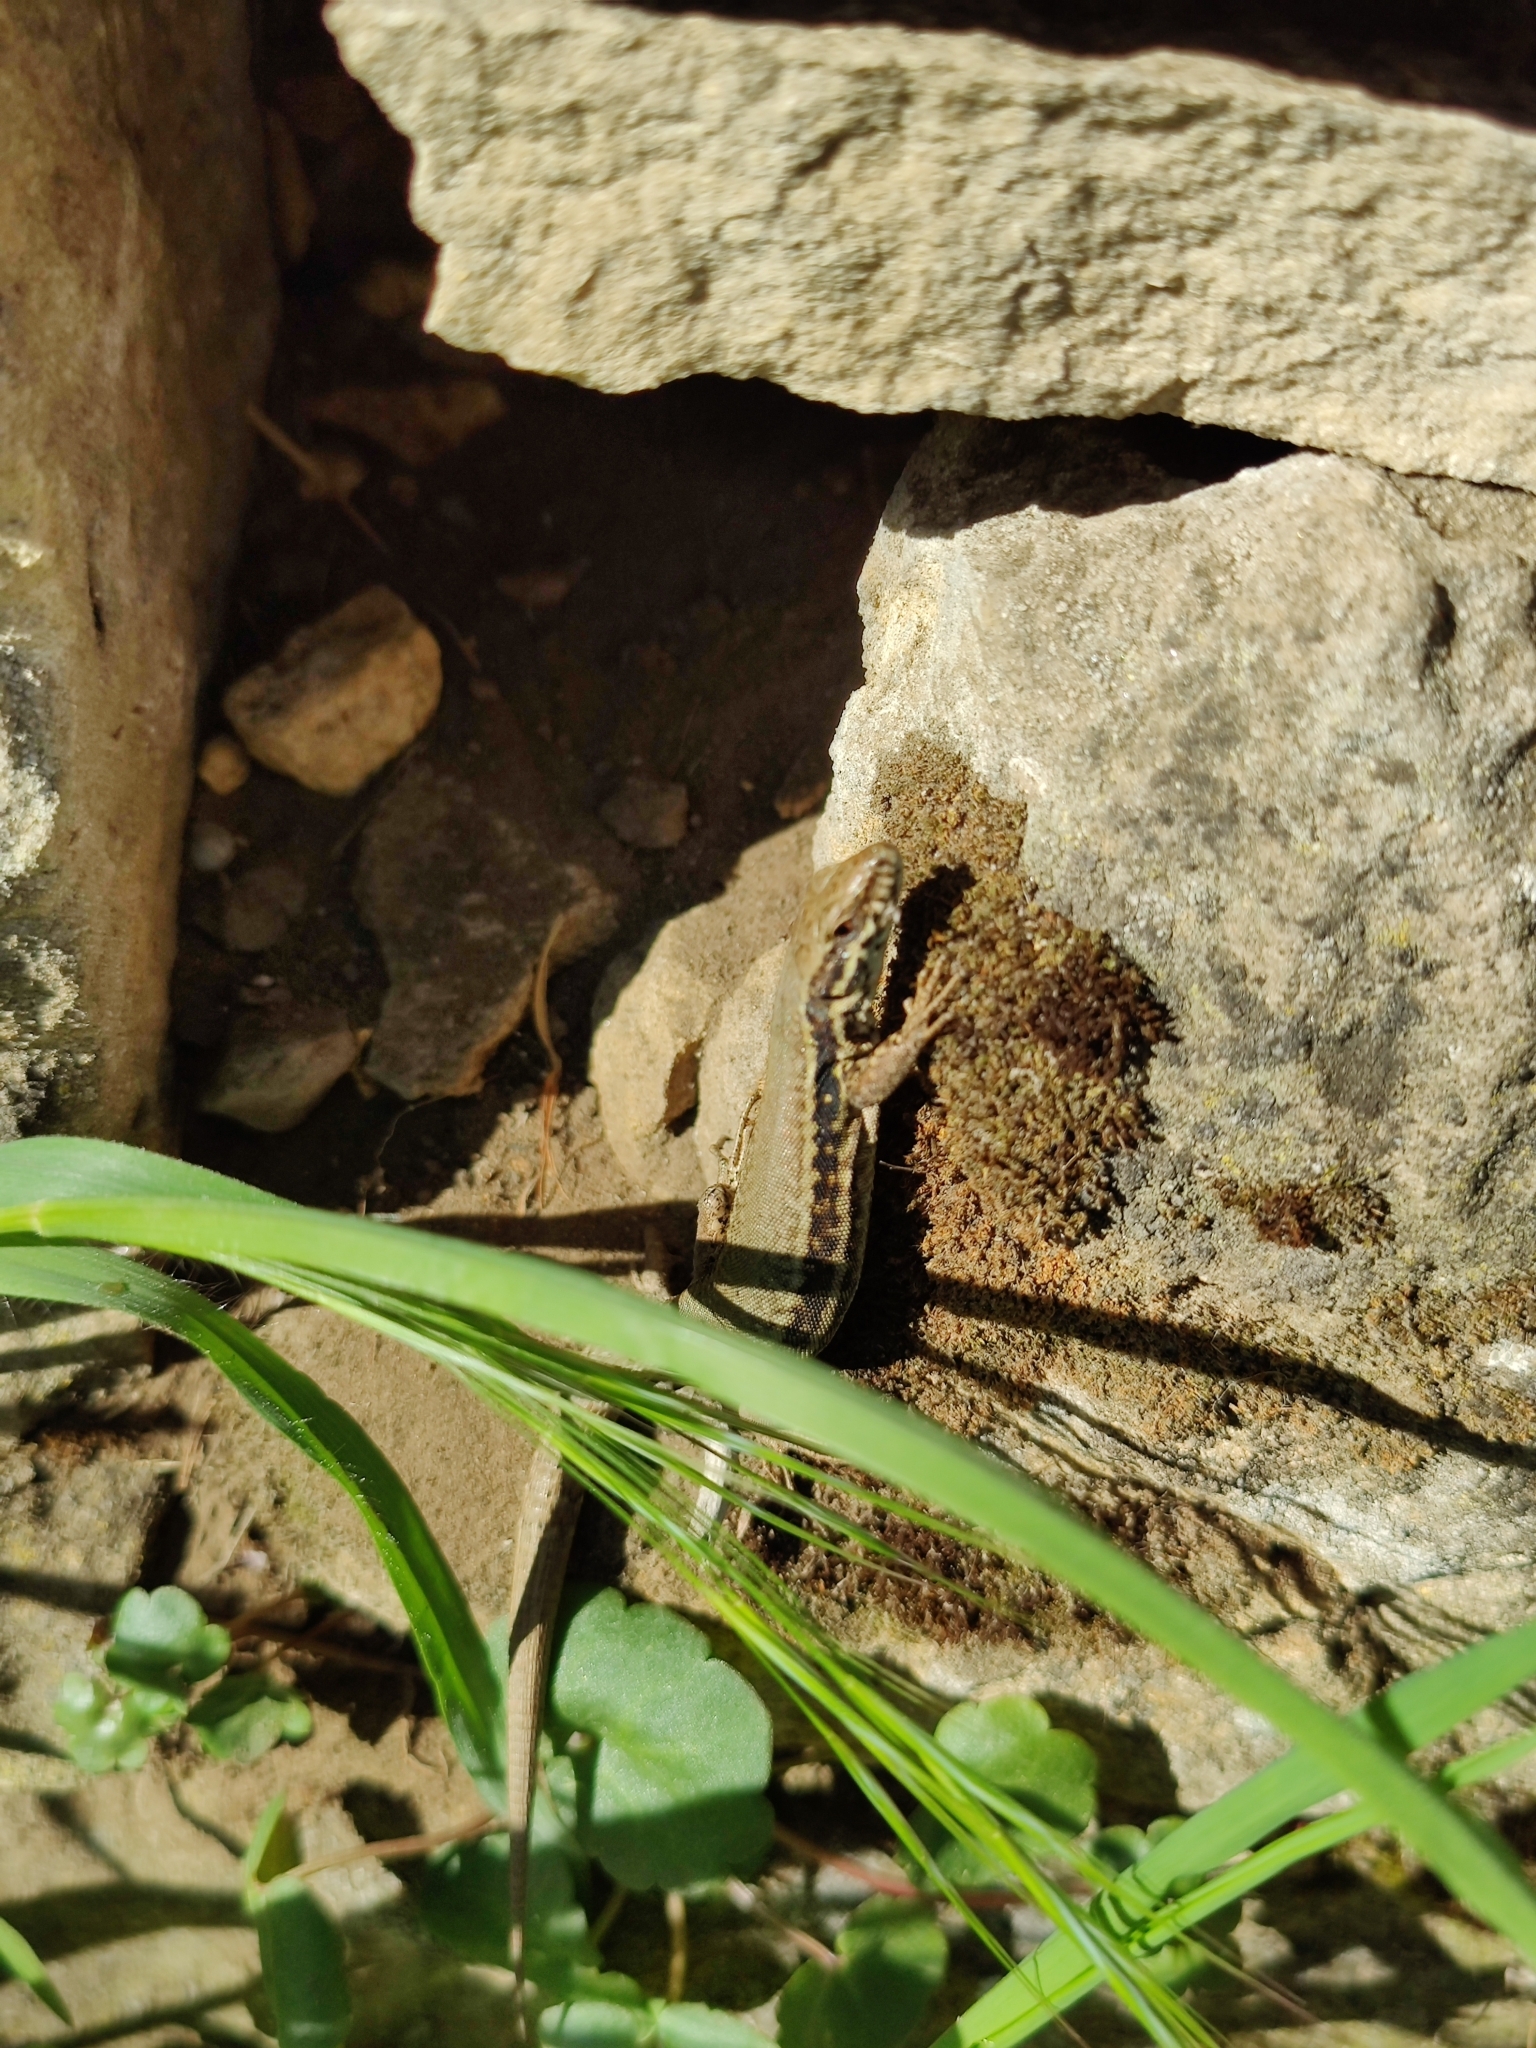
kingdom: Animalia
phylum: Chordata
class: Squamata
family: Lacertidae
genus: Podarcis
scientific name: Podarcis muralis
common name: Common wall lizard
